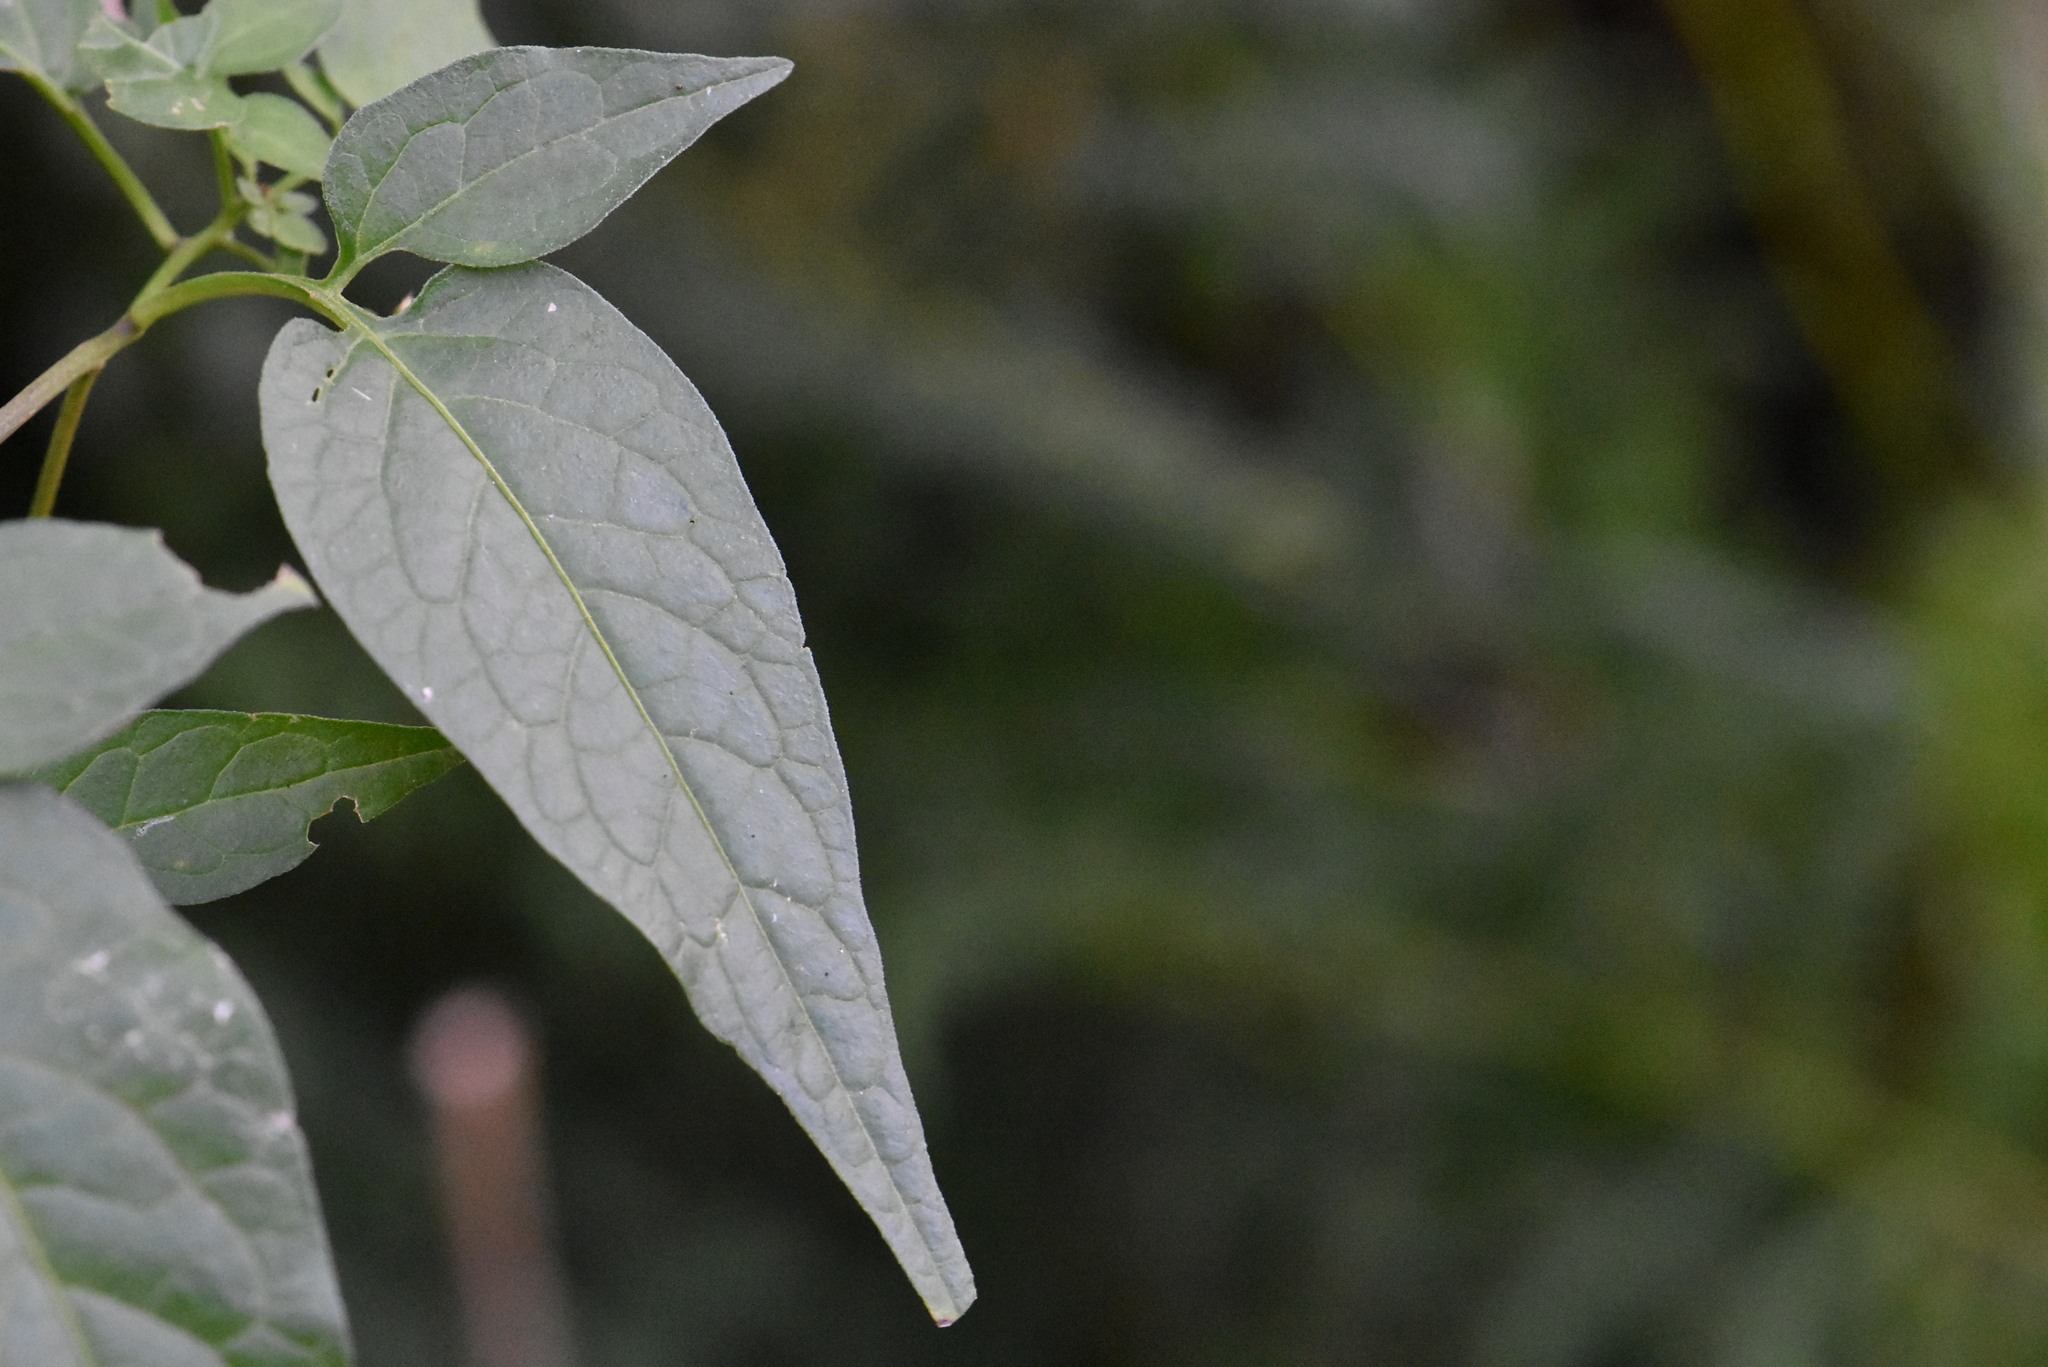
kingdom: Plantae
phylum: Tracheophyta
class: Magnoliopsida
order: Solanales
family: Solanaceae
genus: Solanum
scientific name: Solanum dulcamara
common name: Climbing nightshade
